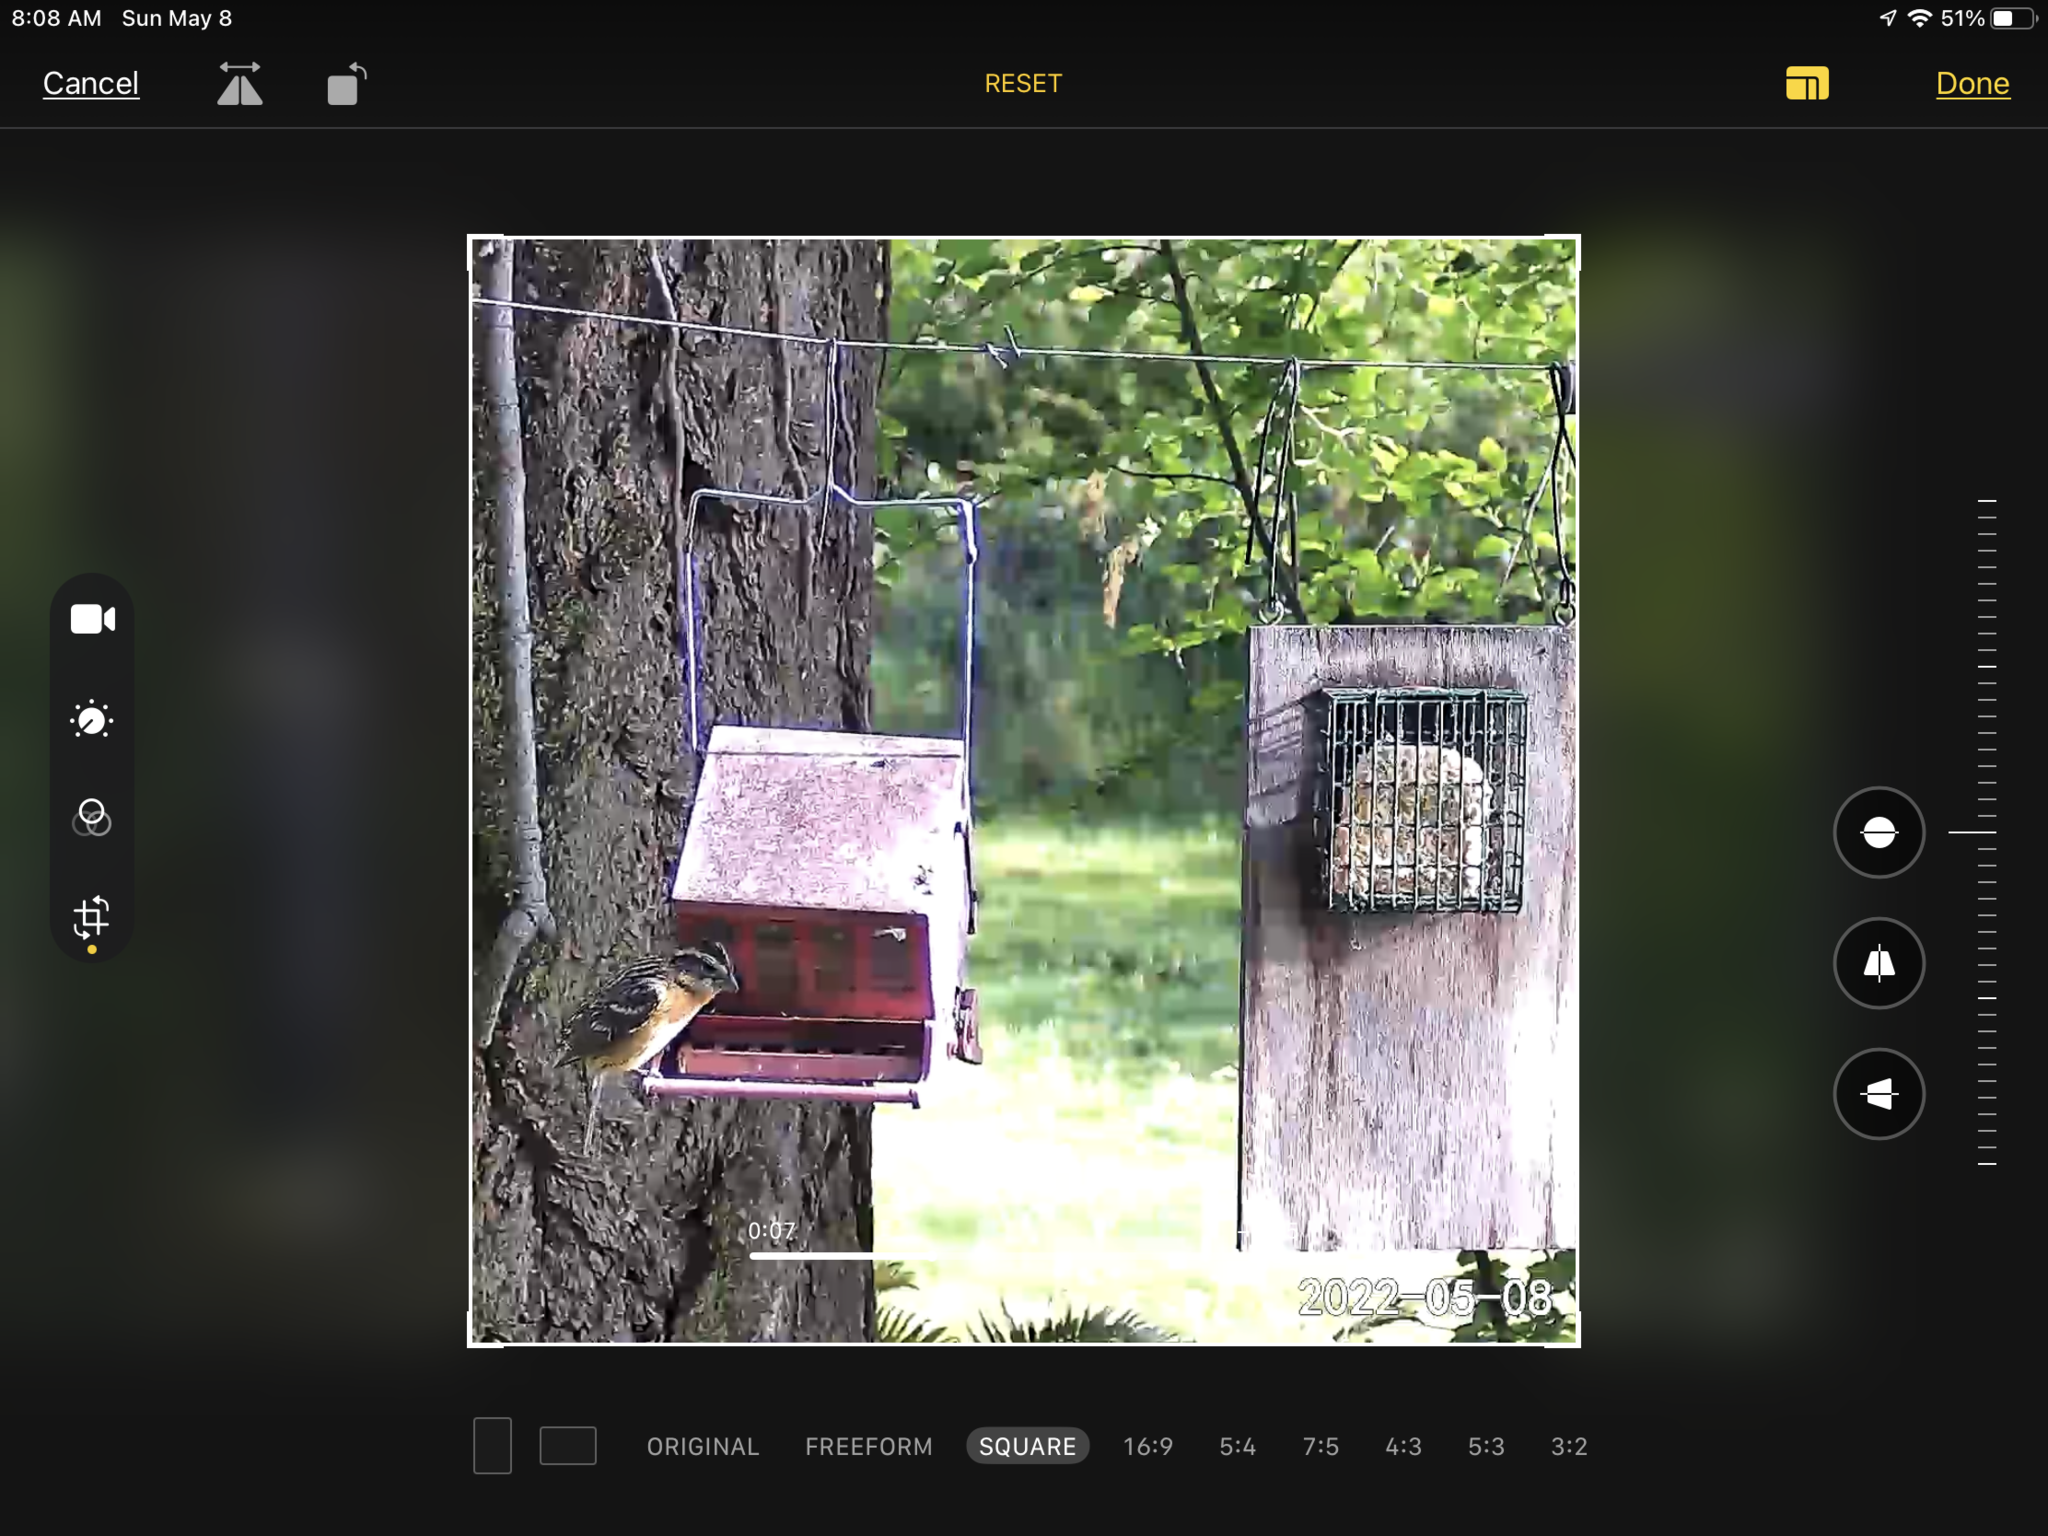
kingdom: Animalia
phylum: Chordata
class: Aves
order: Passeriformes
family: Cardinalidae
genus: Pheucticus
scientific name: Pheucticus melanocephalus
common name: Black-headed grosbeak
